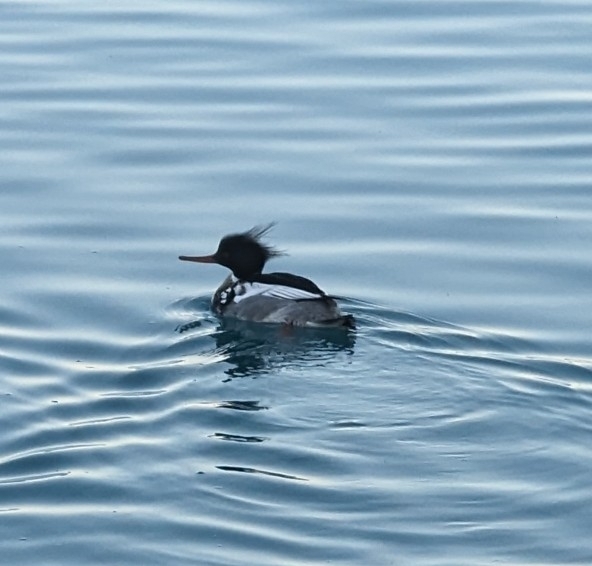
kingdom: Animalia
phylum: Chordata
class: Aves
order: Anseriformes
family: Anatidae
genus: Mergus
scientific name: Mergus serrator
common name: Red-breasted merganser
